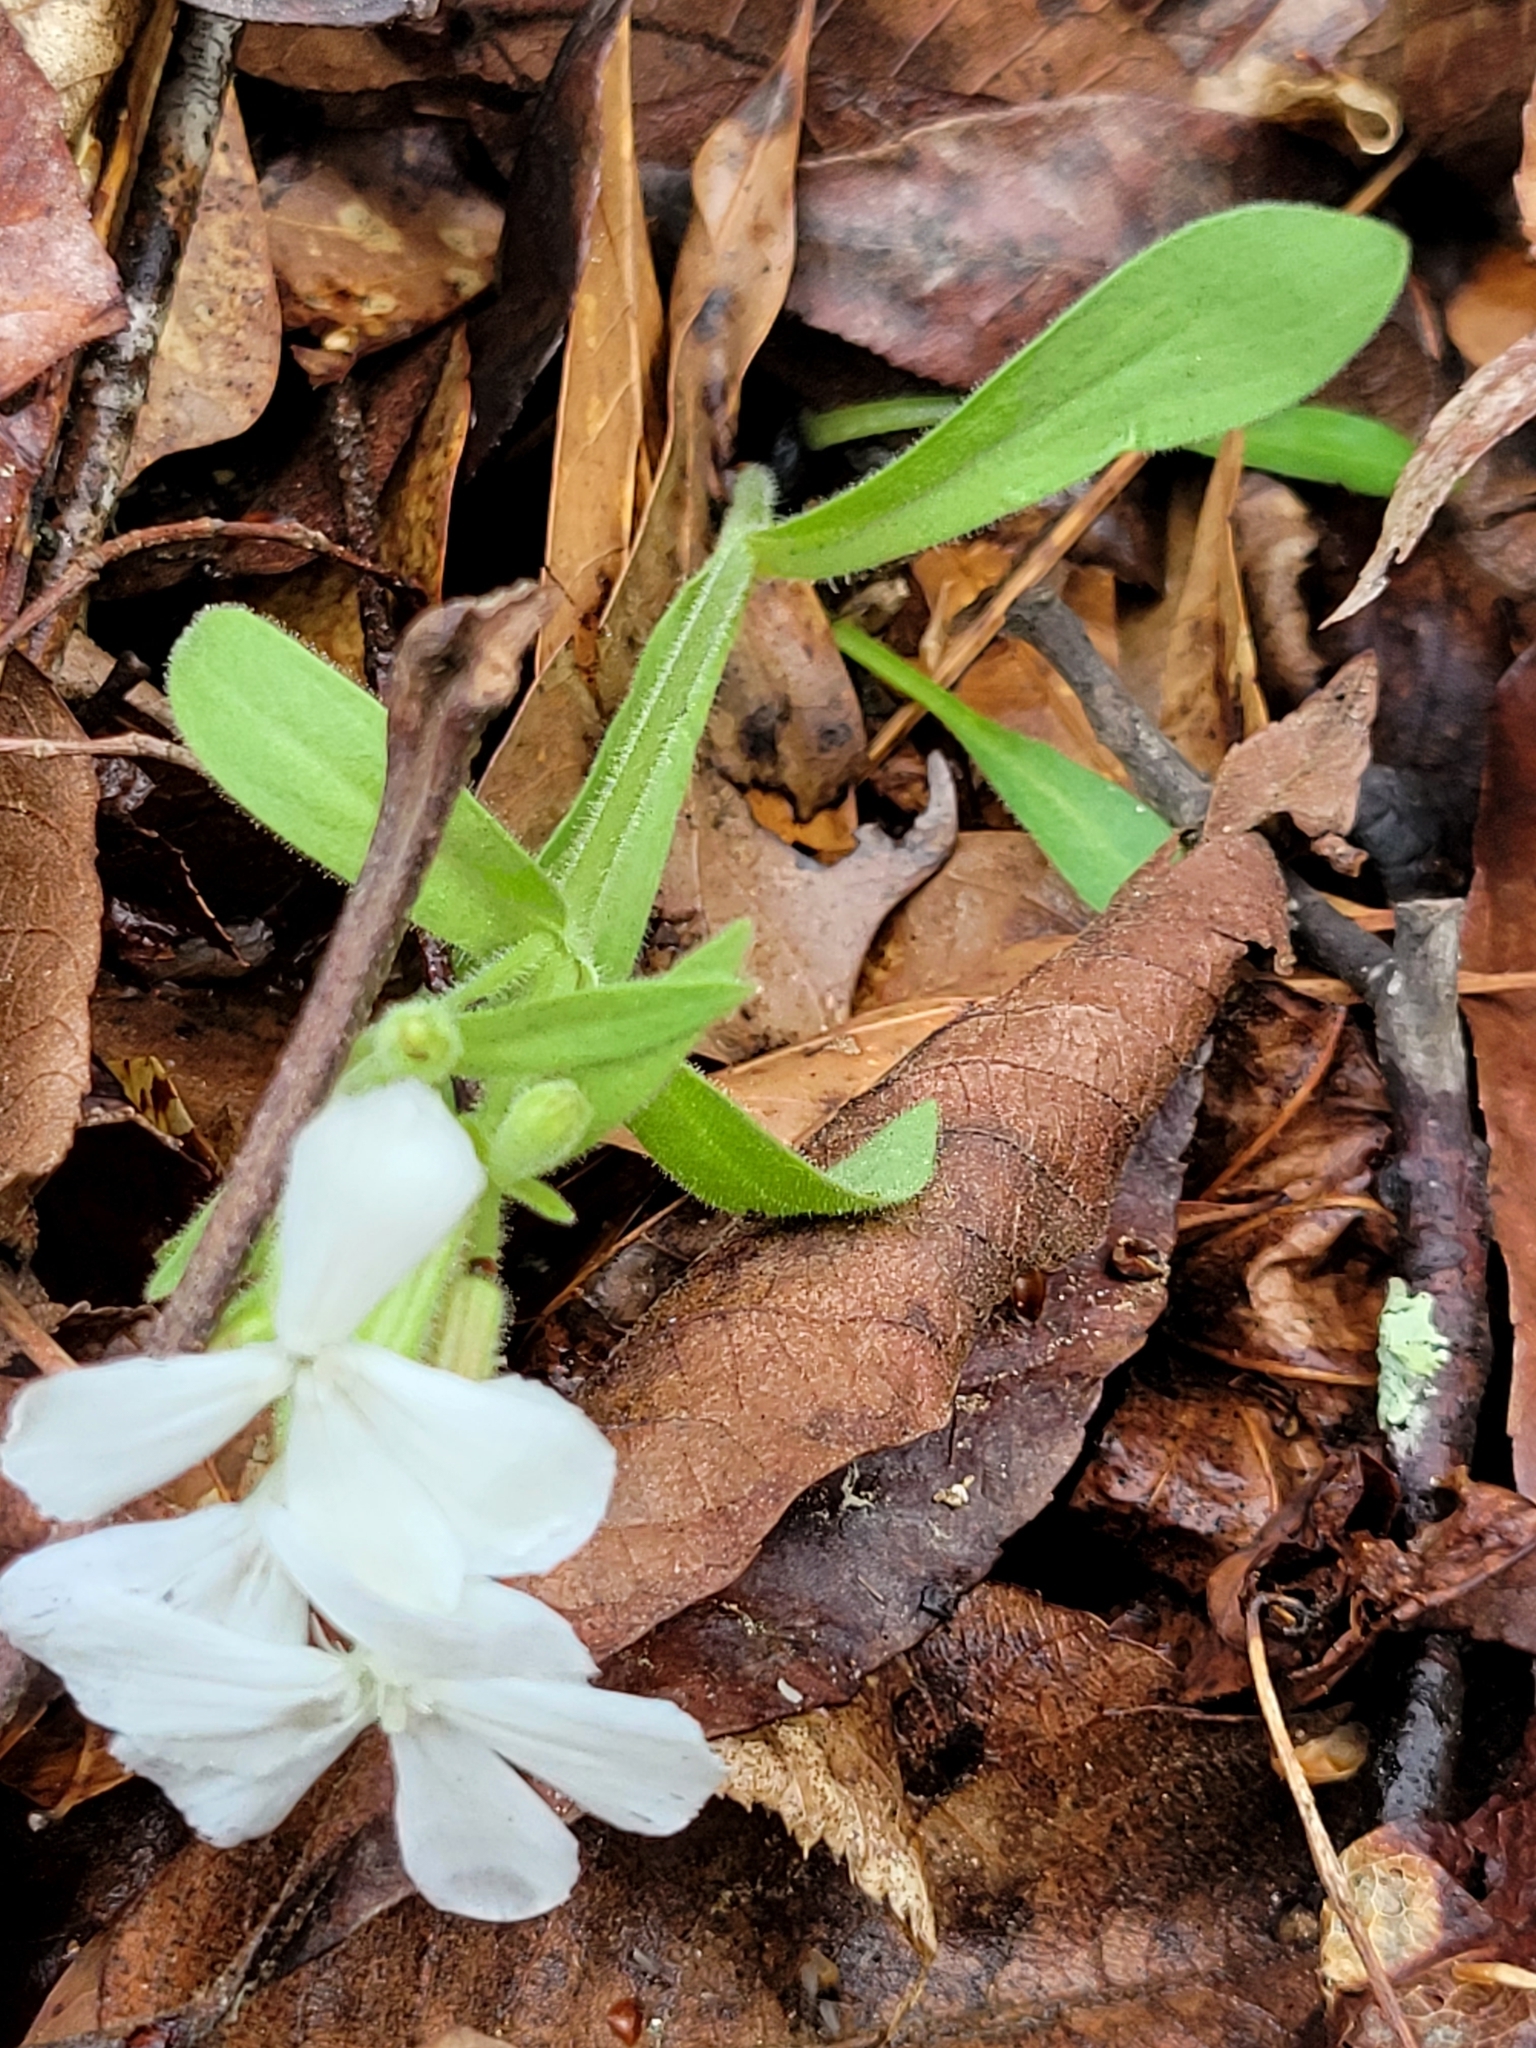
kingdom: Plantae
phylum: Tracheophyta
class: Magnoliopsida
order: Caryophyllales
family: Caryophyllaceae
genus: Silene
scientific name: Silene caroliniana
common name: Sticky catchfly
